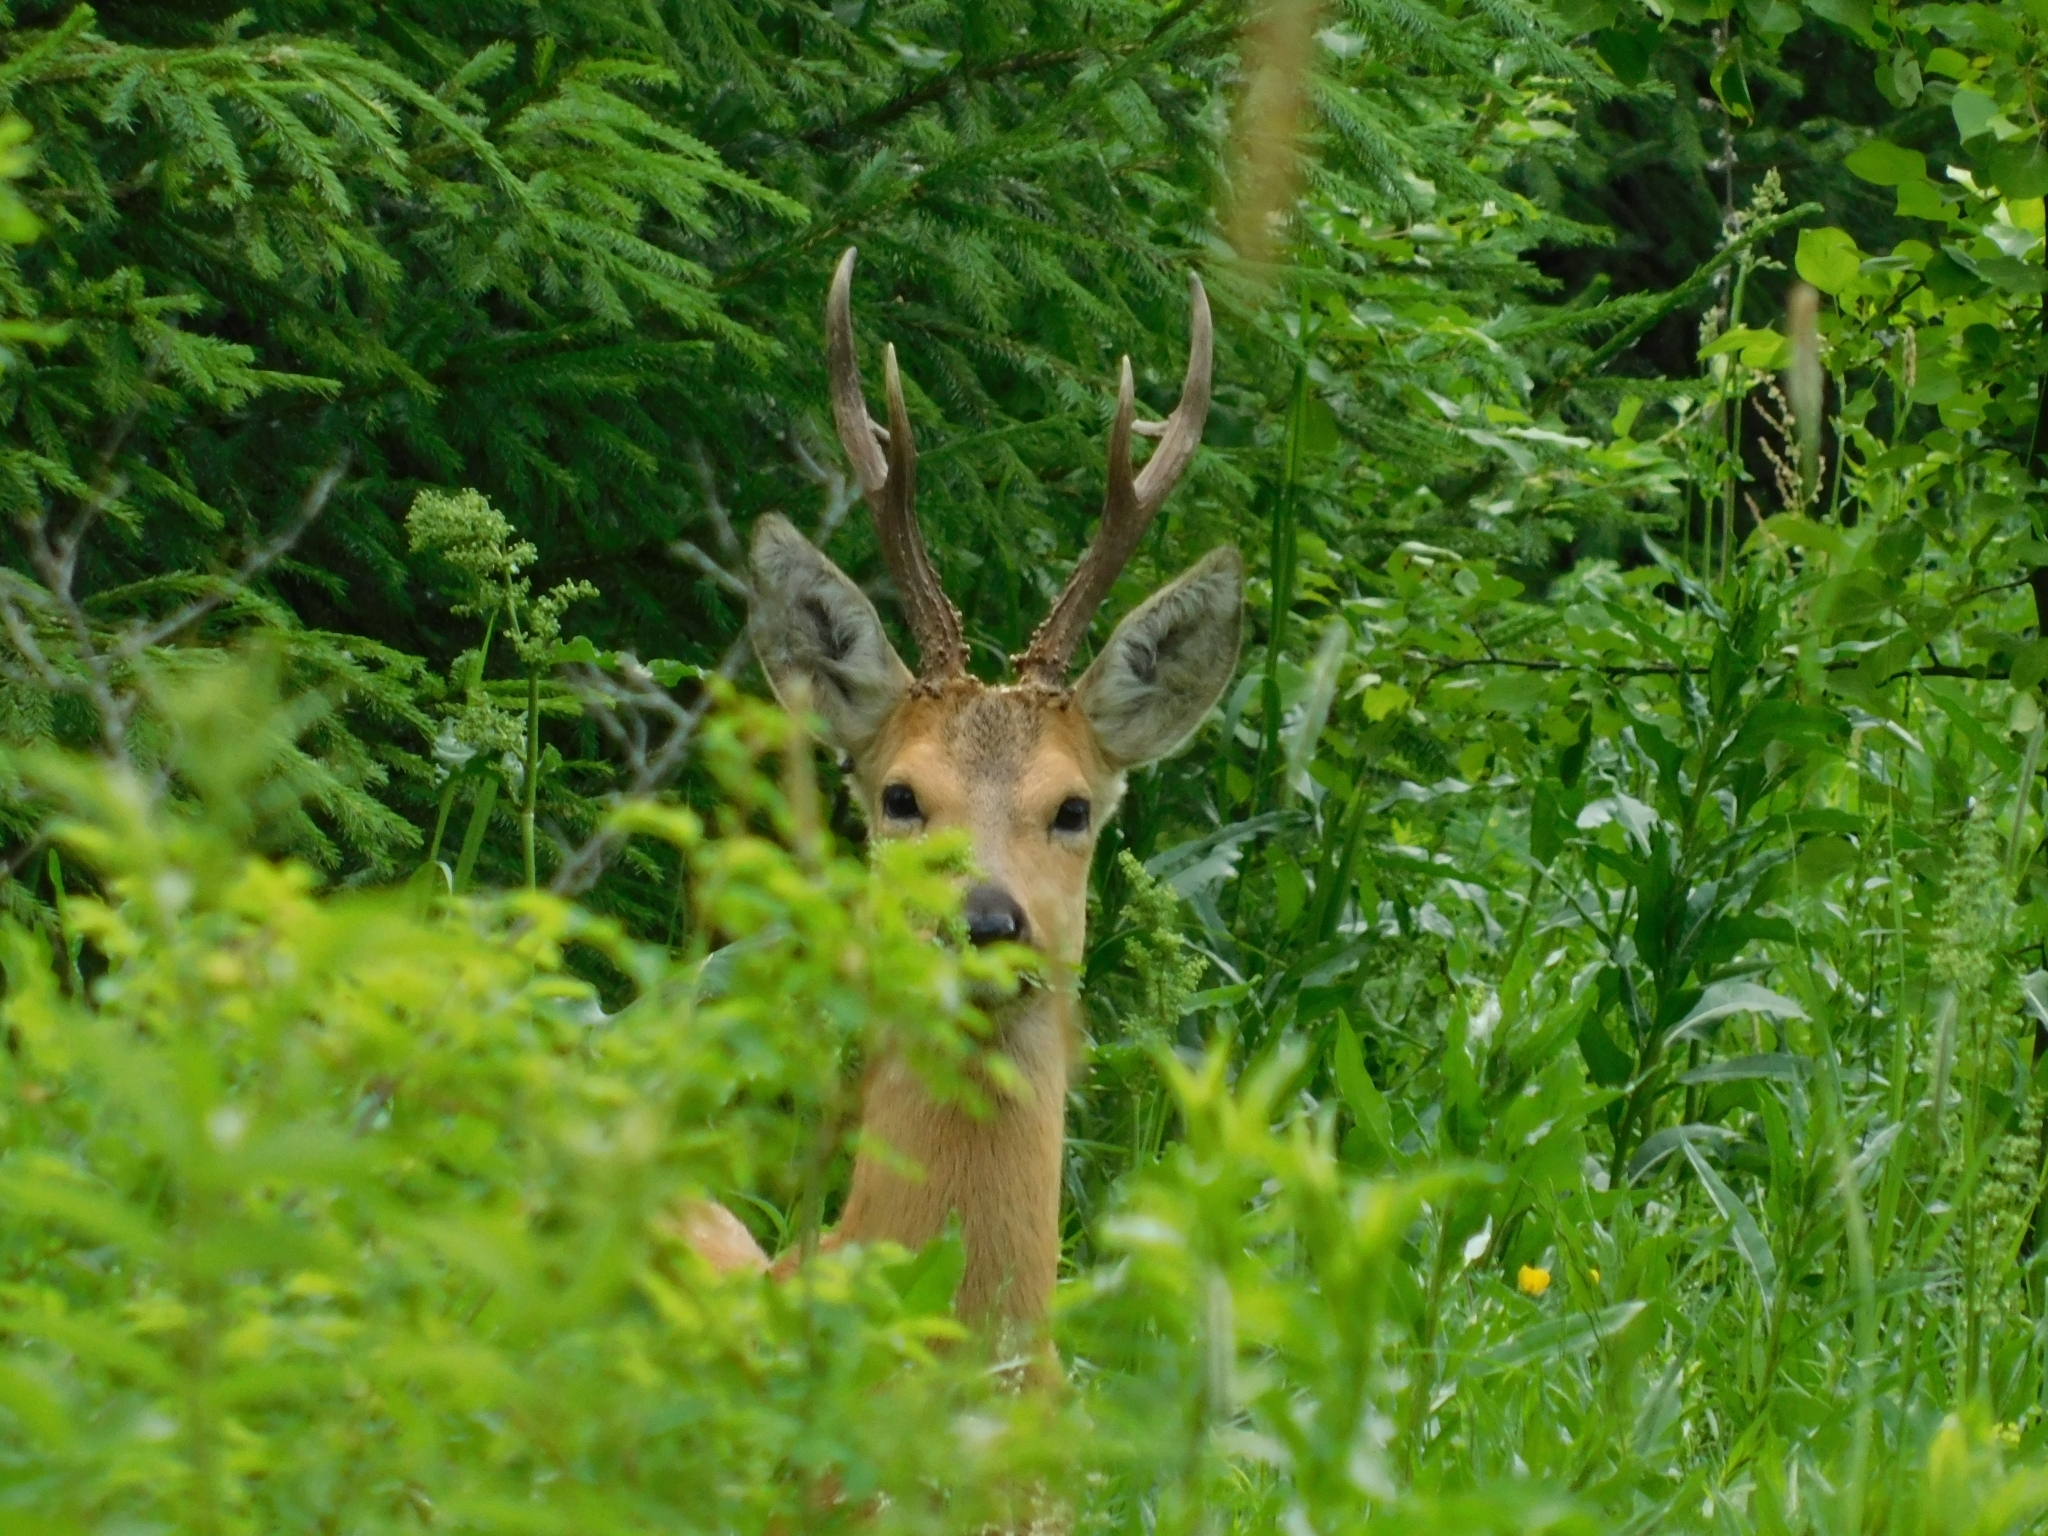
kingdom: Animalia
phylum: Chordata
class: Mammalia
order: Artiodactyla
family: Cervidae
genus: Capreolus
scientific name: Capreolus pygargus
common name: Siberian roe
